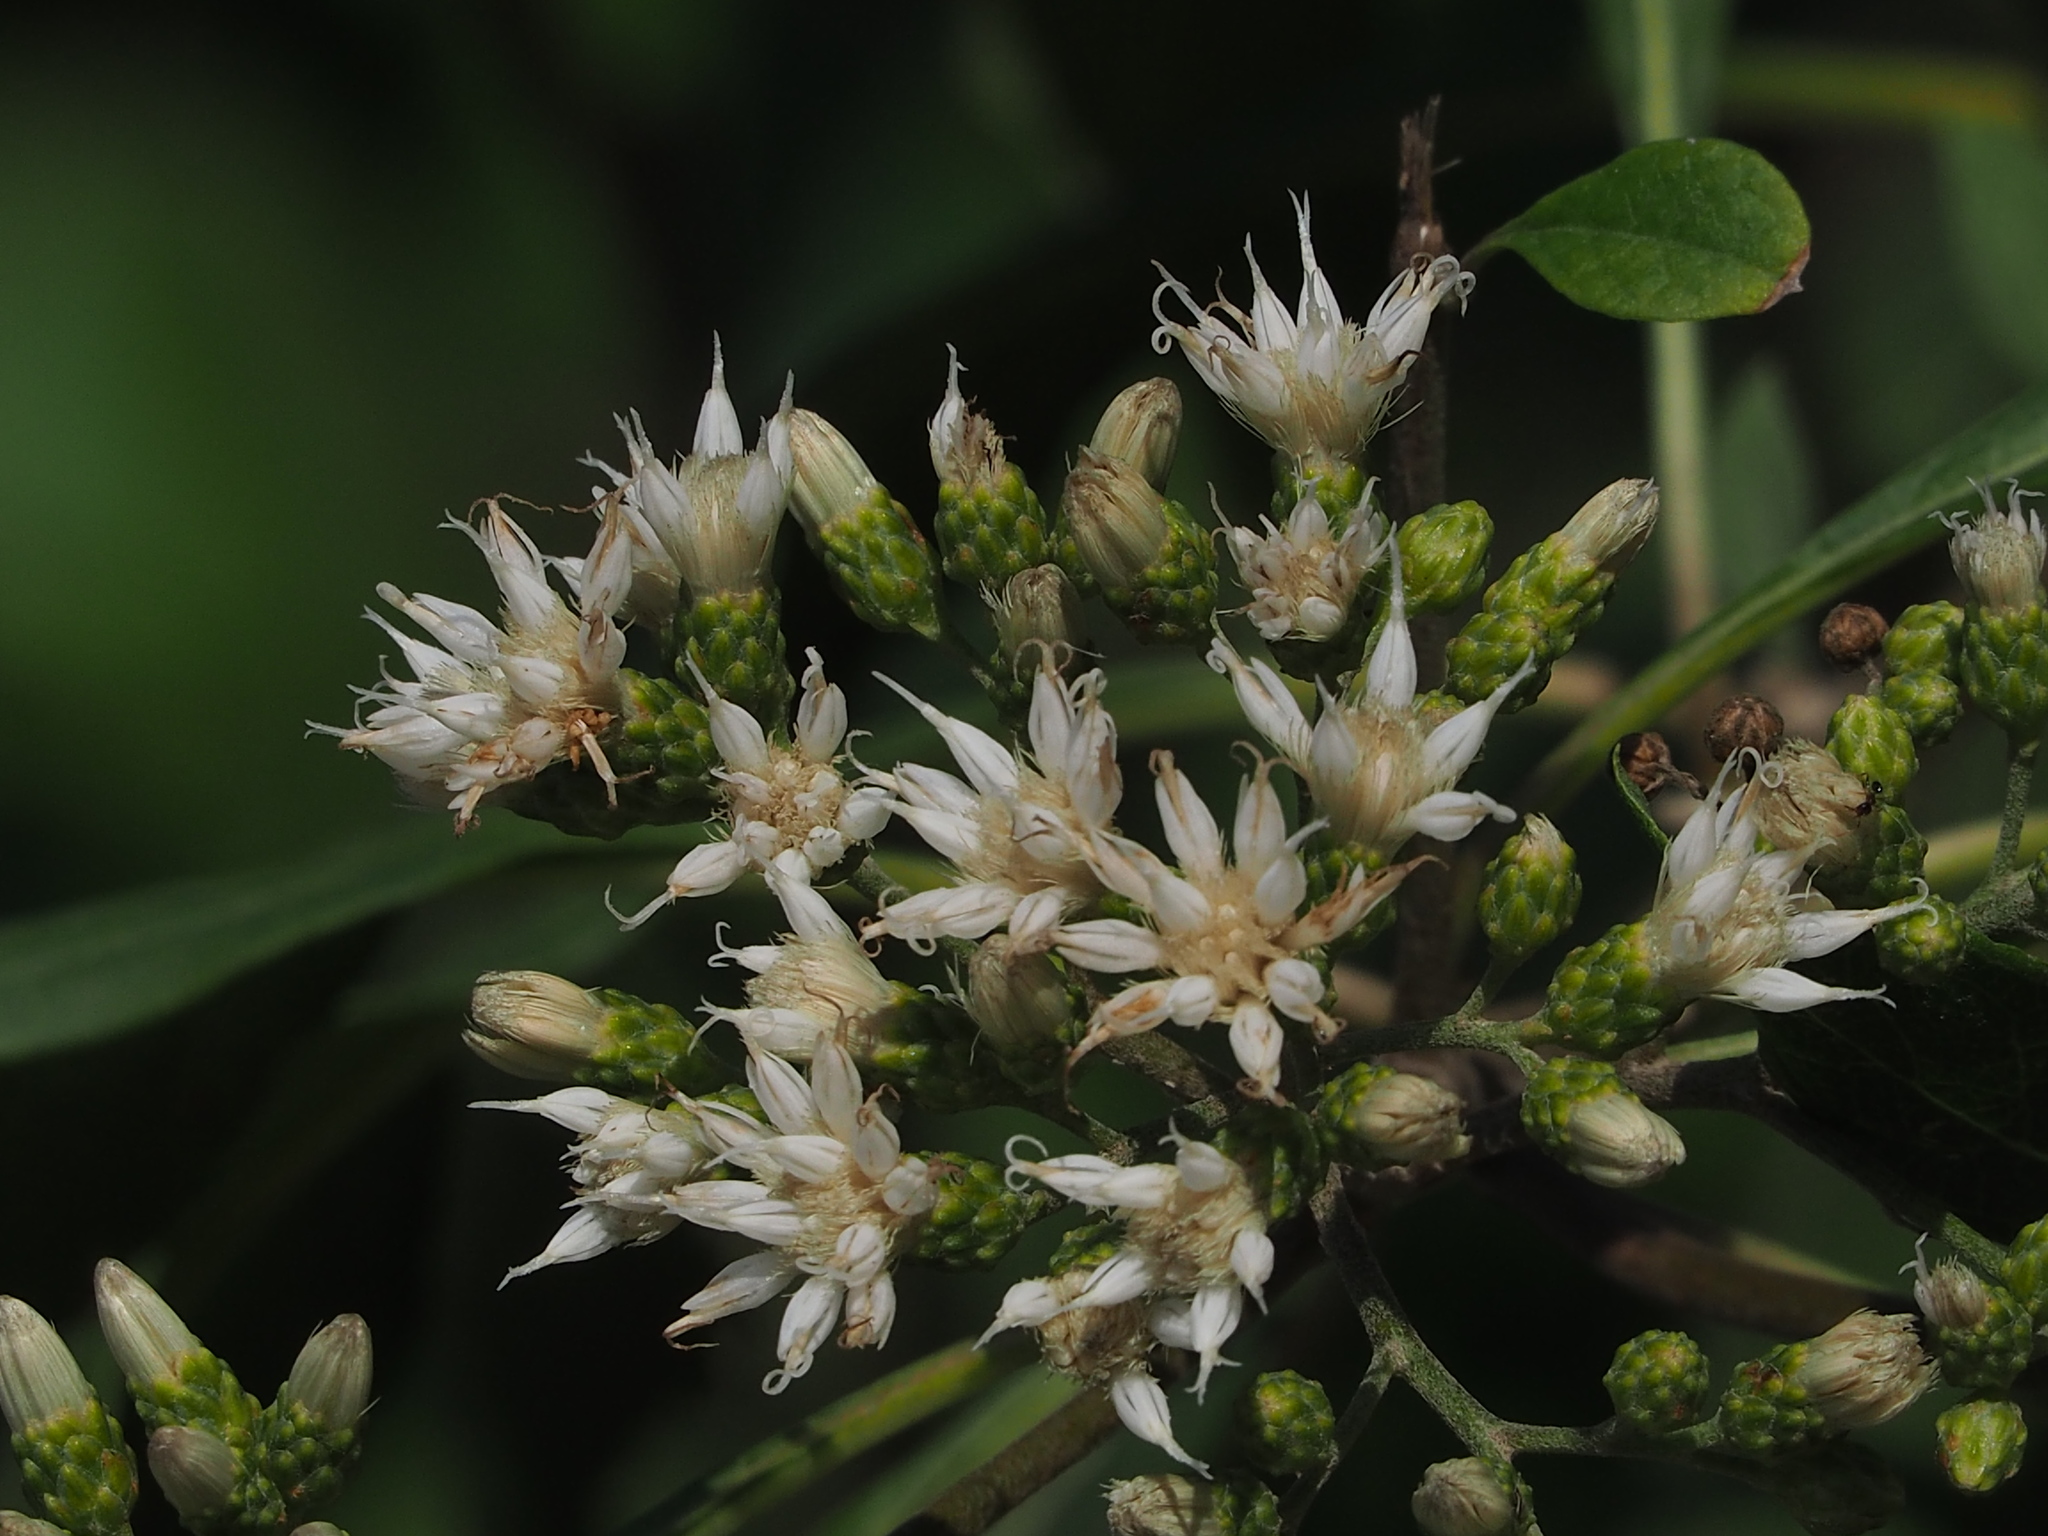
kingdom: Plantae
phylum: Tracheophyta
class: Magnoliopsida
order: Asterales
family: Asteraceae
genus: Gymnanthemum
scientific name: Gymnanthemum amygdalinum
